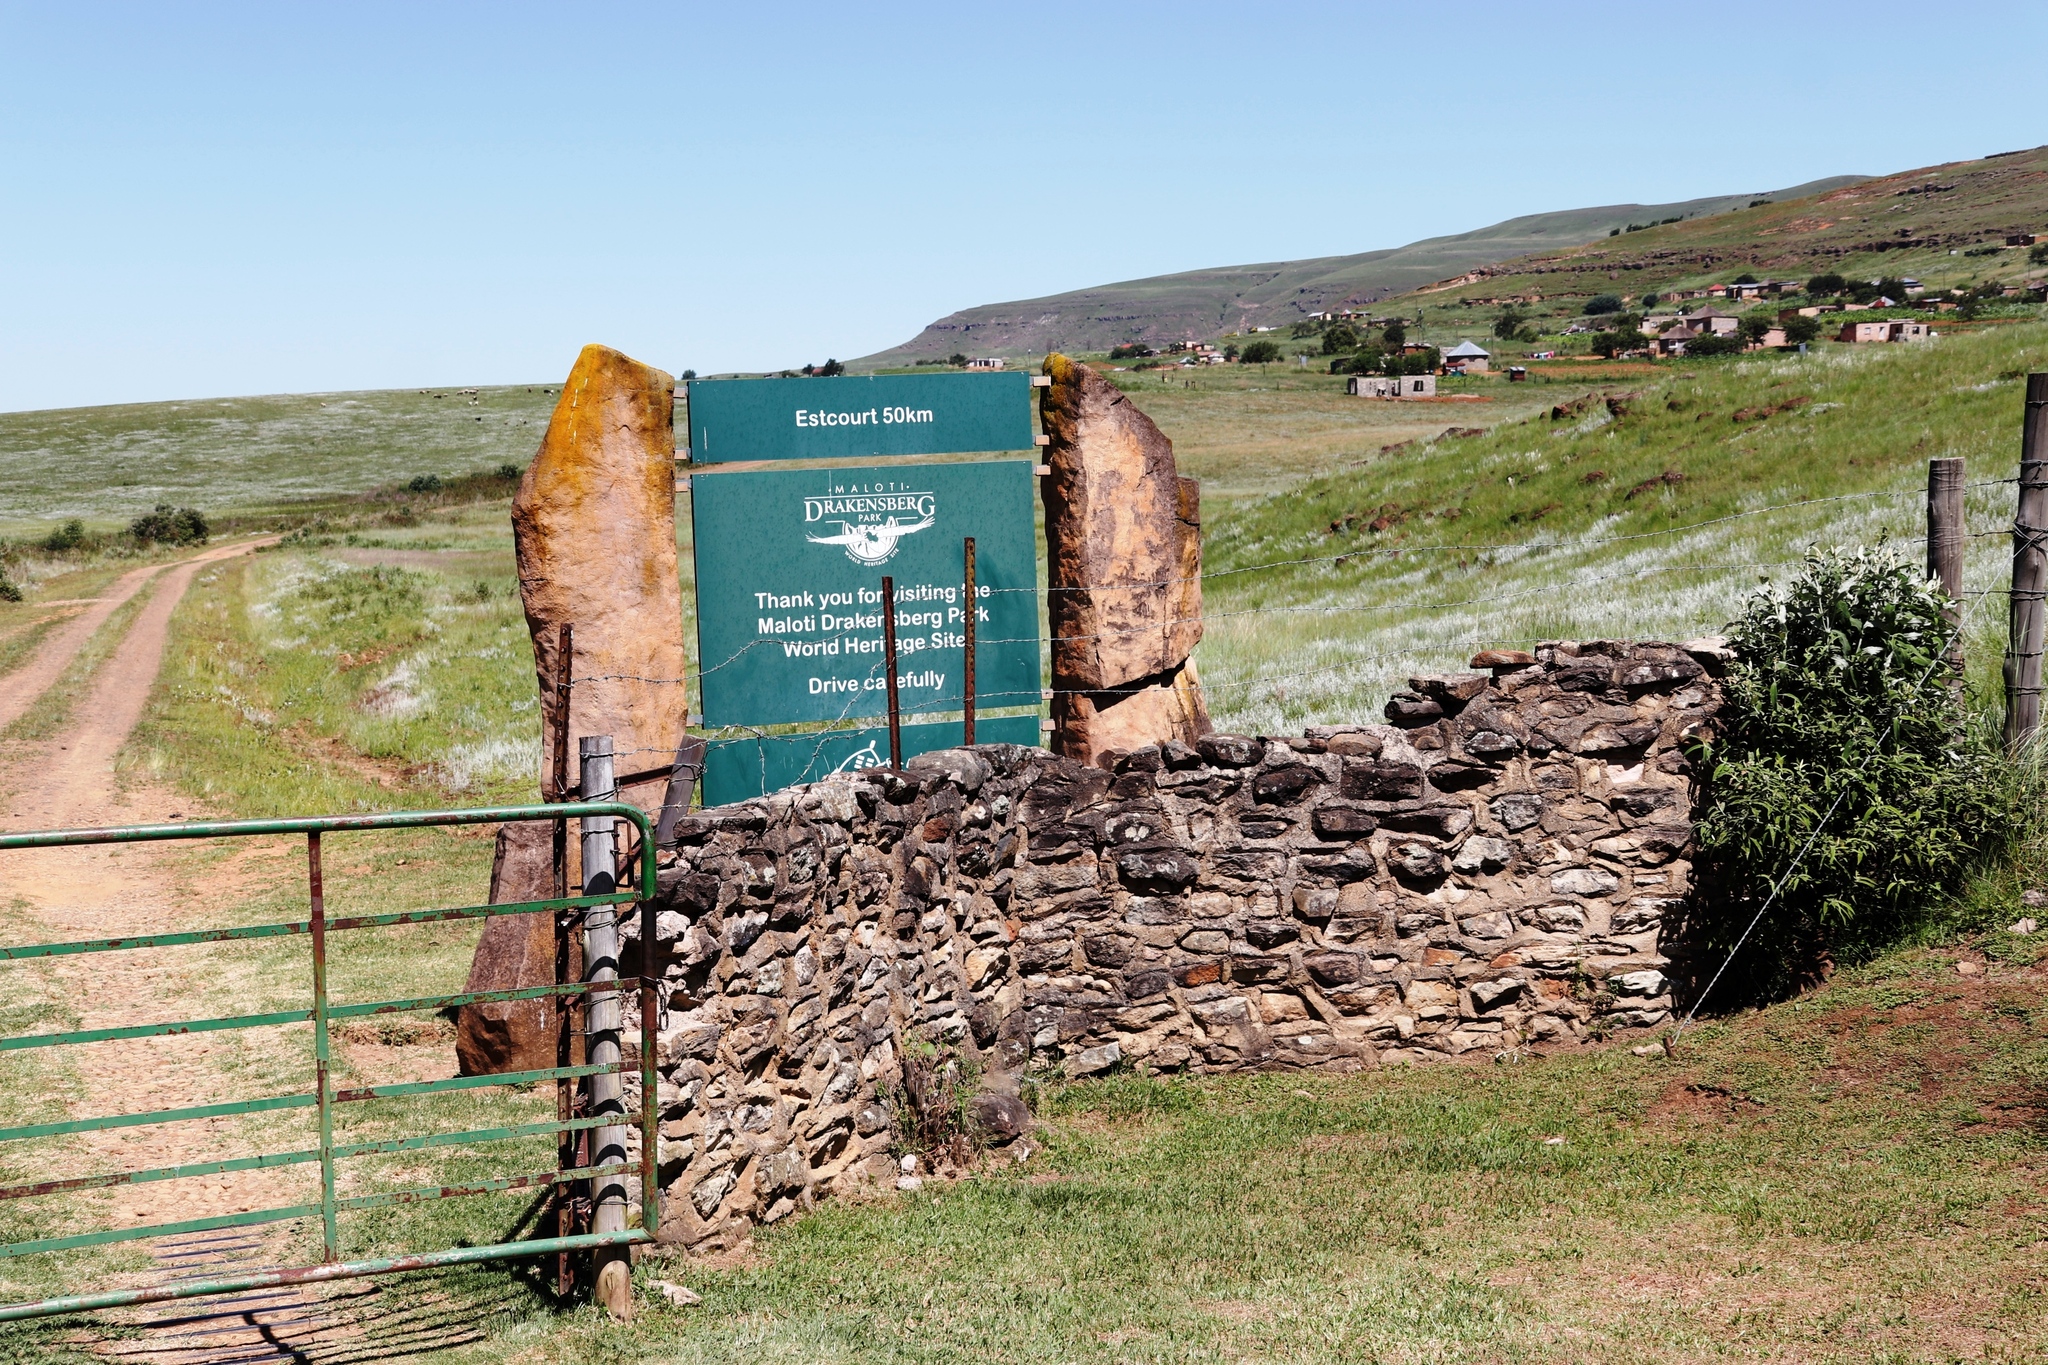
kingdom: Plantae
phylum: Tracheophyta
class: Magnoliopsida
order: Lamiales
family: Scrophulariaceae
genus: Buddleja
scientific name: Buddleja salviifolia
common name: Sagewood
